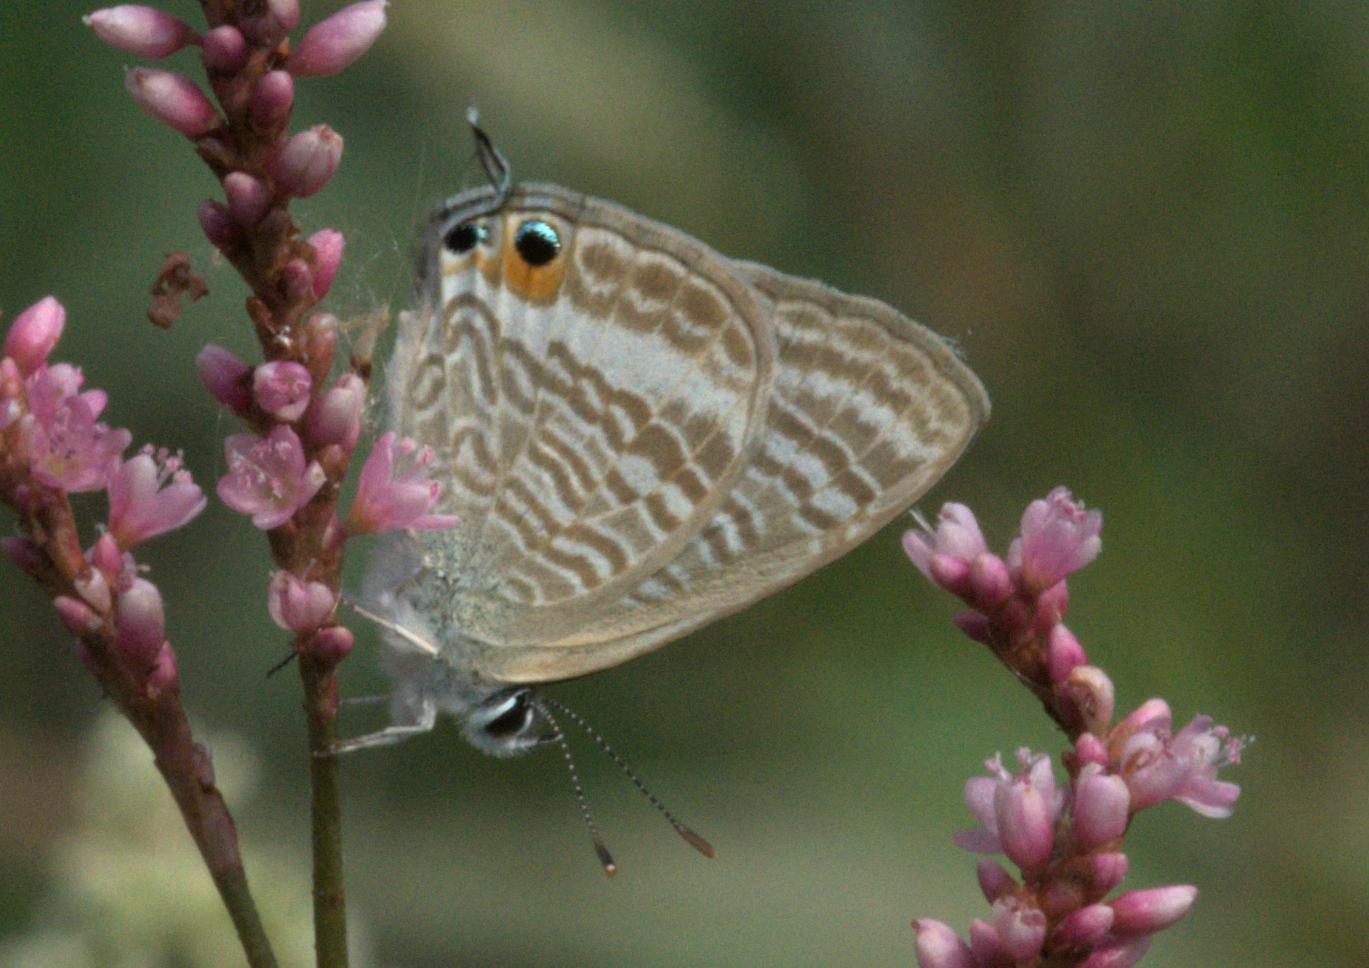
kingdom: Animalia
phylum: Arthropoda
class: Insecta
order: Lepidoptera
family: Lycaenidae
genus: Lampides
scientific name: Lampides boeticus
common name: Long-tailed blue
